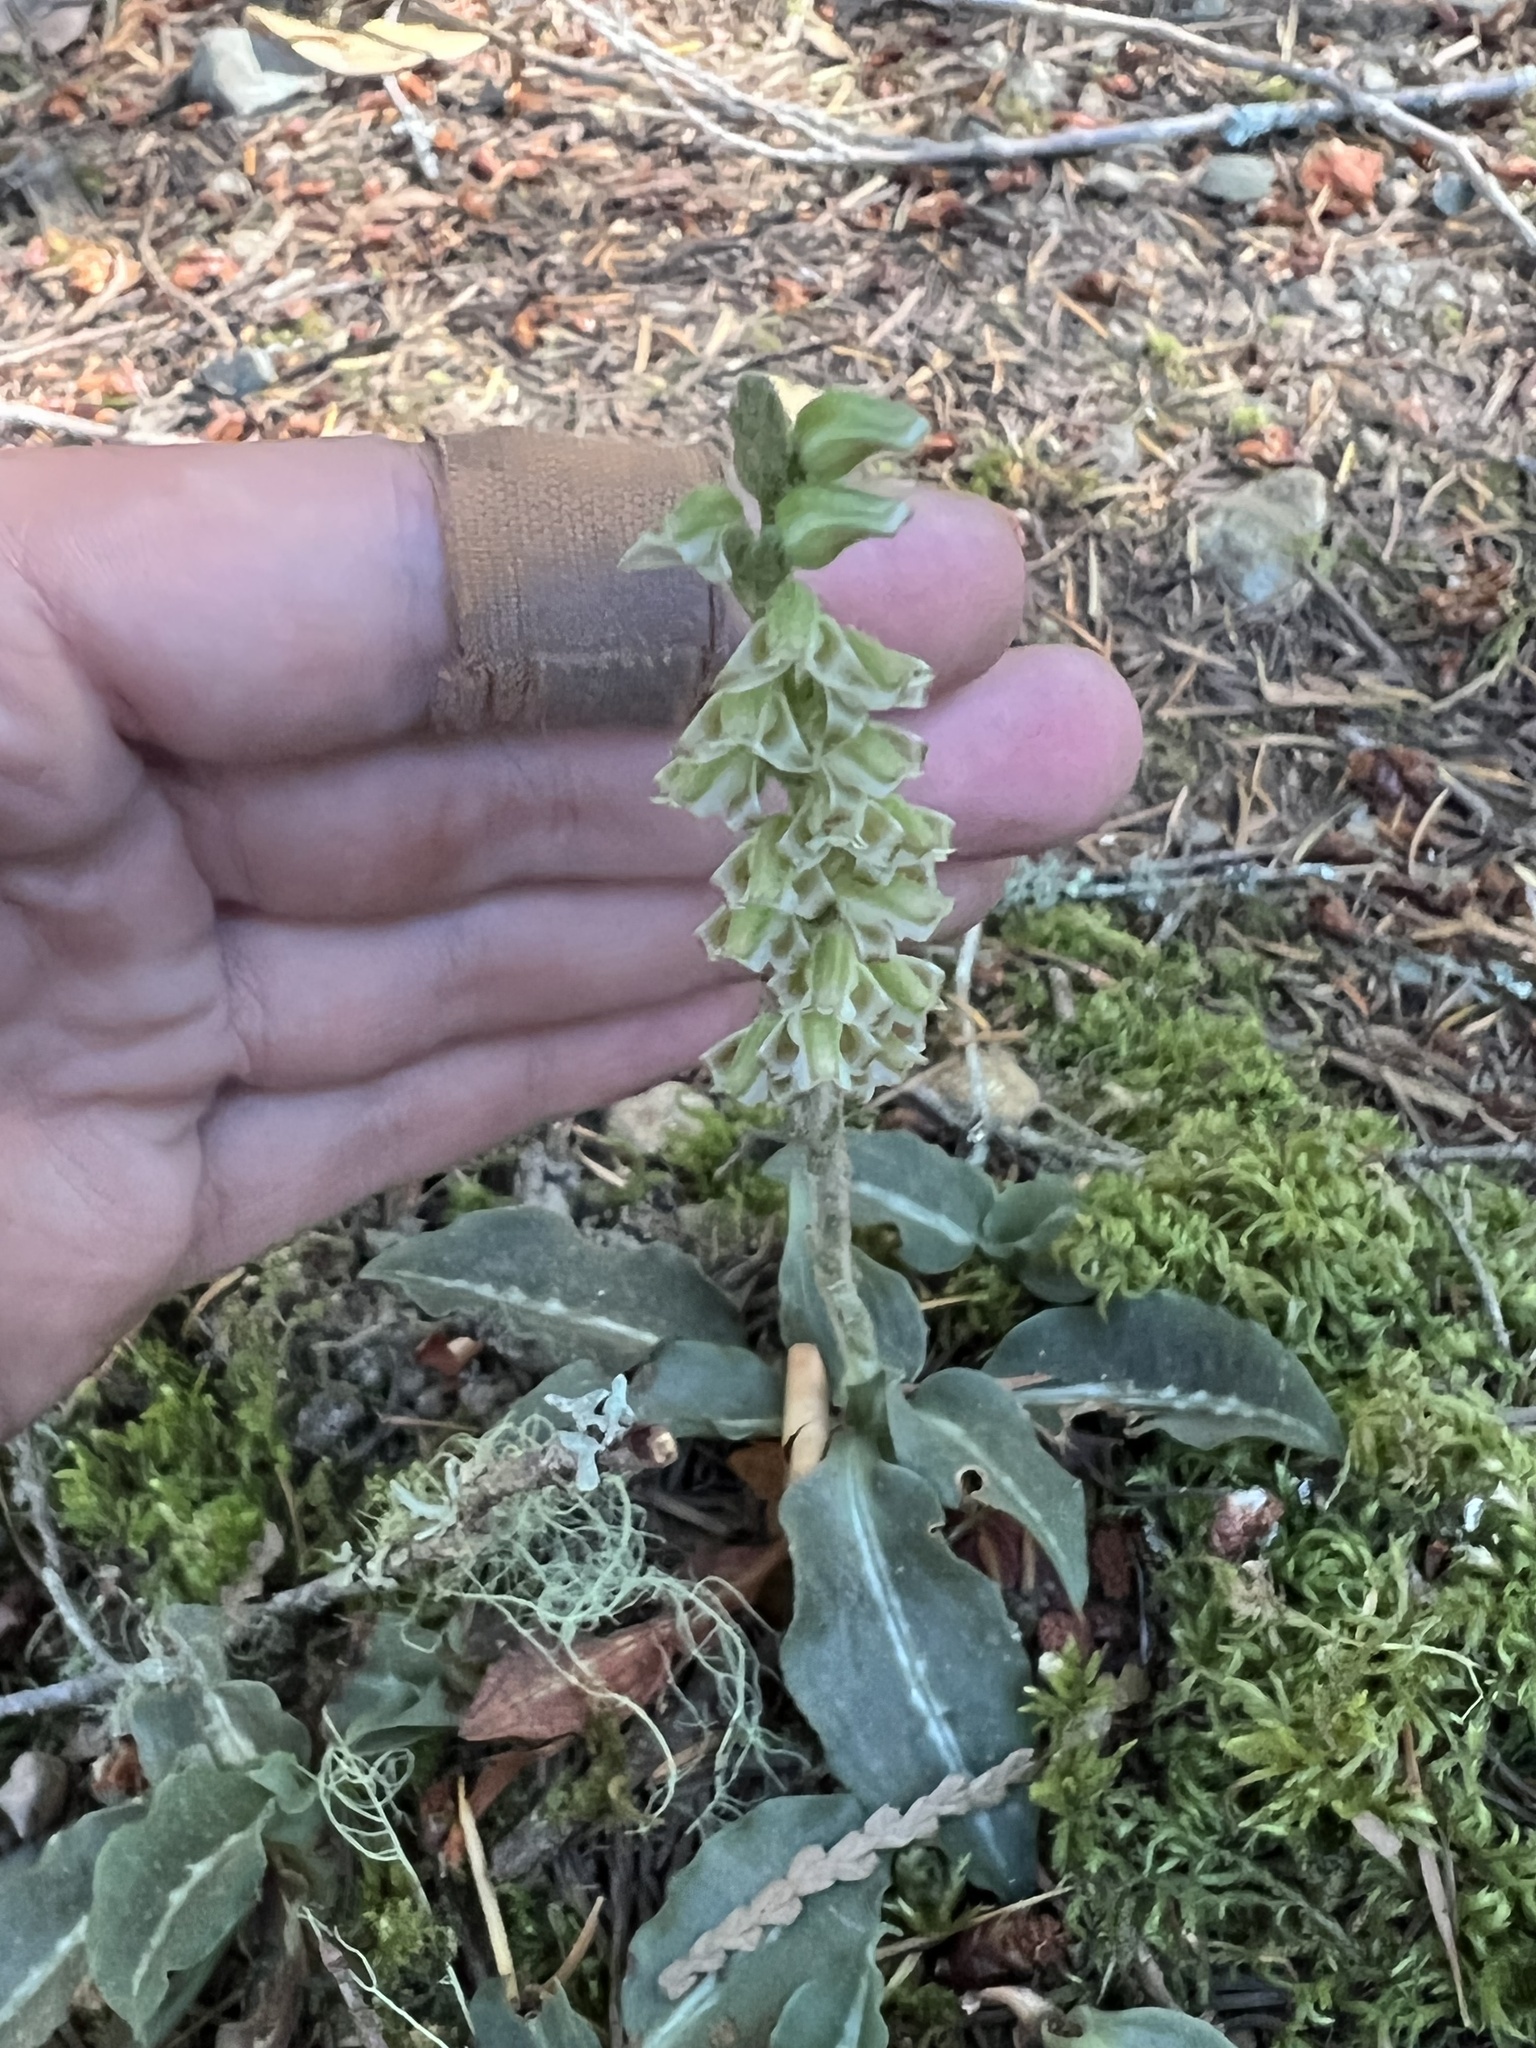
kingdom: Plantae
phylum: Tracheophyta
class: Liliopsida
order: Asparagales
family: Orchidaceae
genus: Goodyera
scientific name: Goodyera oblongifolia
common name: Giant rattlesnake-plantain
